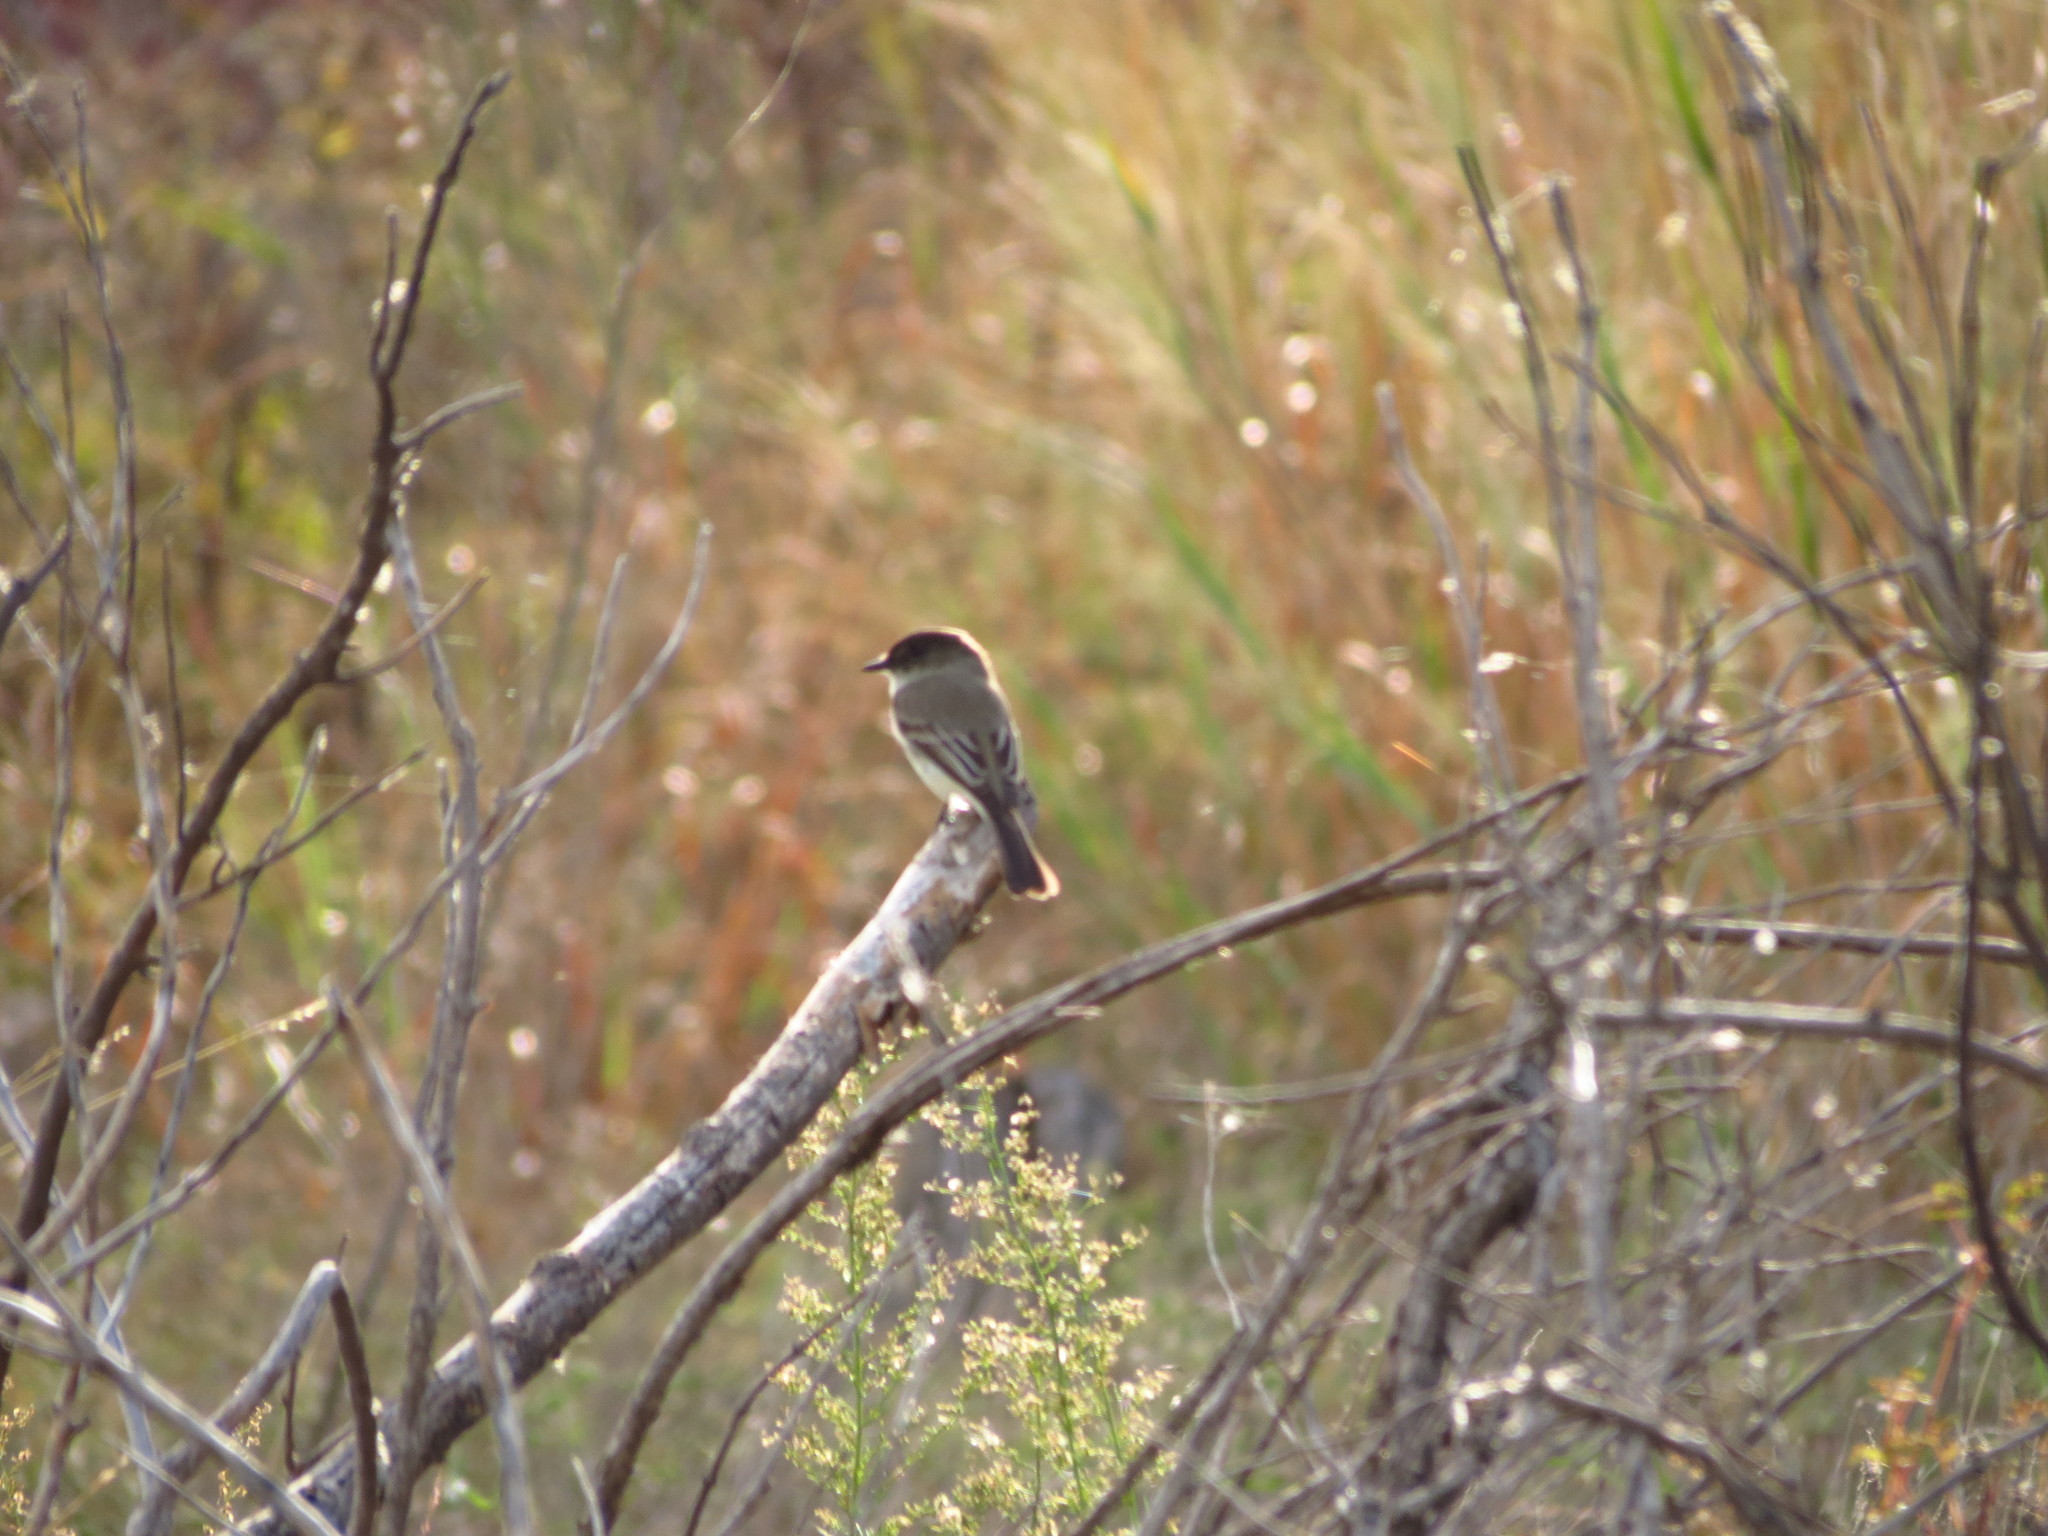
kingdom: Animalia
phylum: Chordata
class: Aves
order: Passeriformes
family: Tyrannidae
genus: Sayornis
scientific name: Sayornis phoebe
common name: Eastern phoebe
